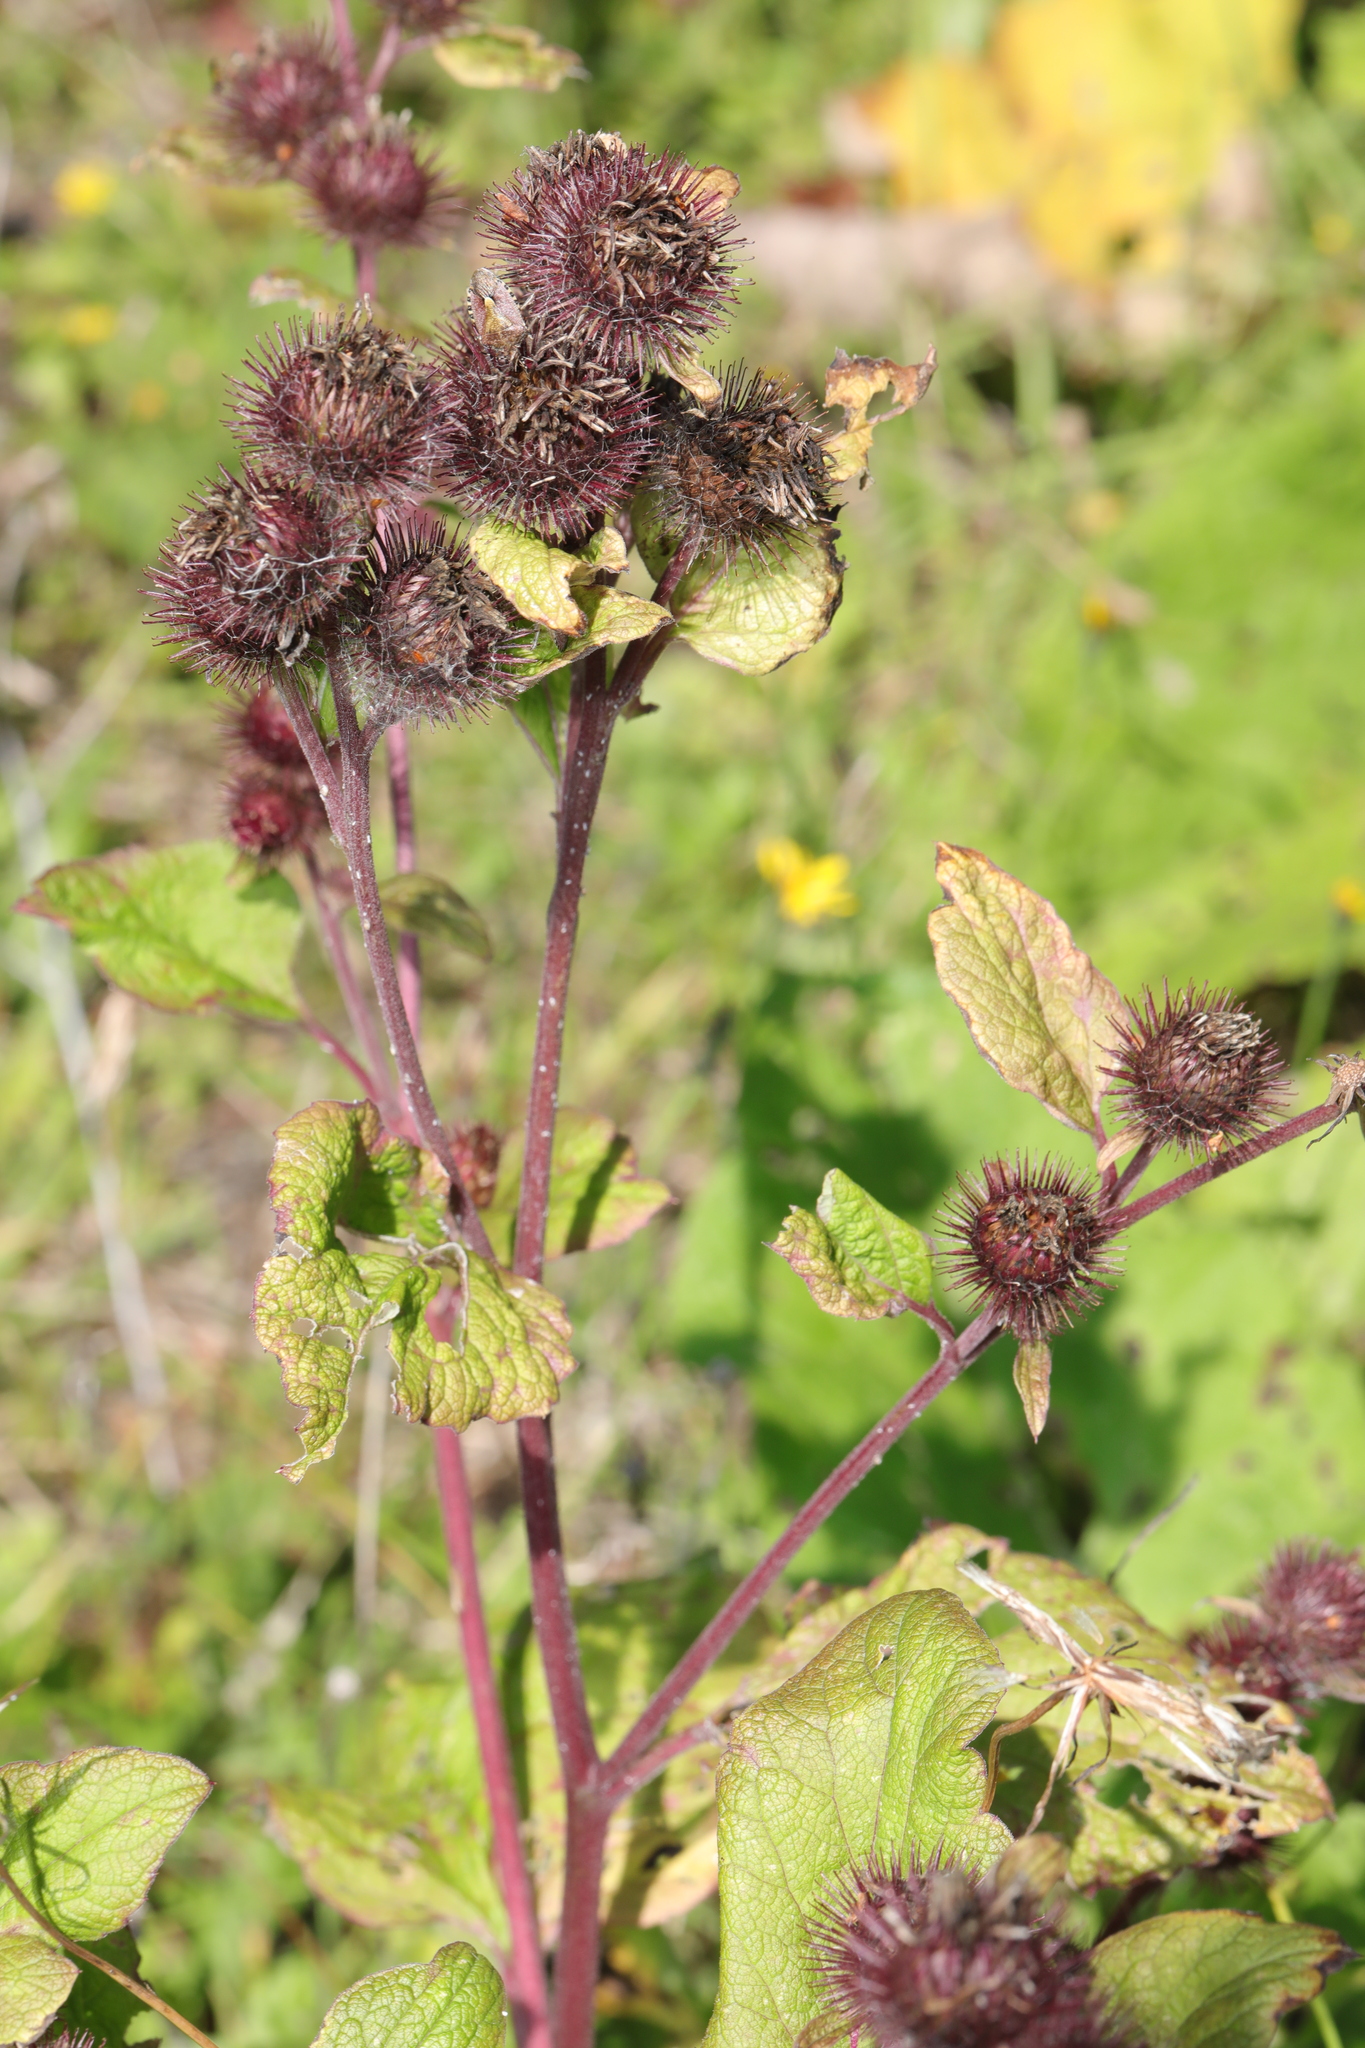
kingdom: Plantae
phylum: Tracheophyta
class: Magnoliopsida
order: Asterales
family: Asteraceae
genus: Arctium
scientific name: Arctium minus
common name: Lesser burdock
